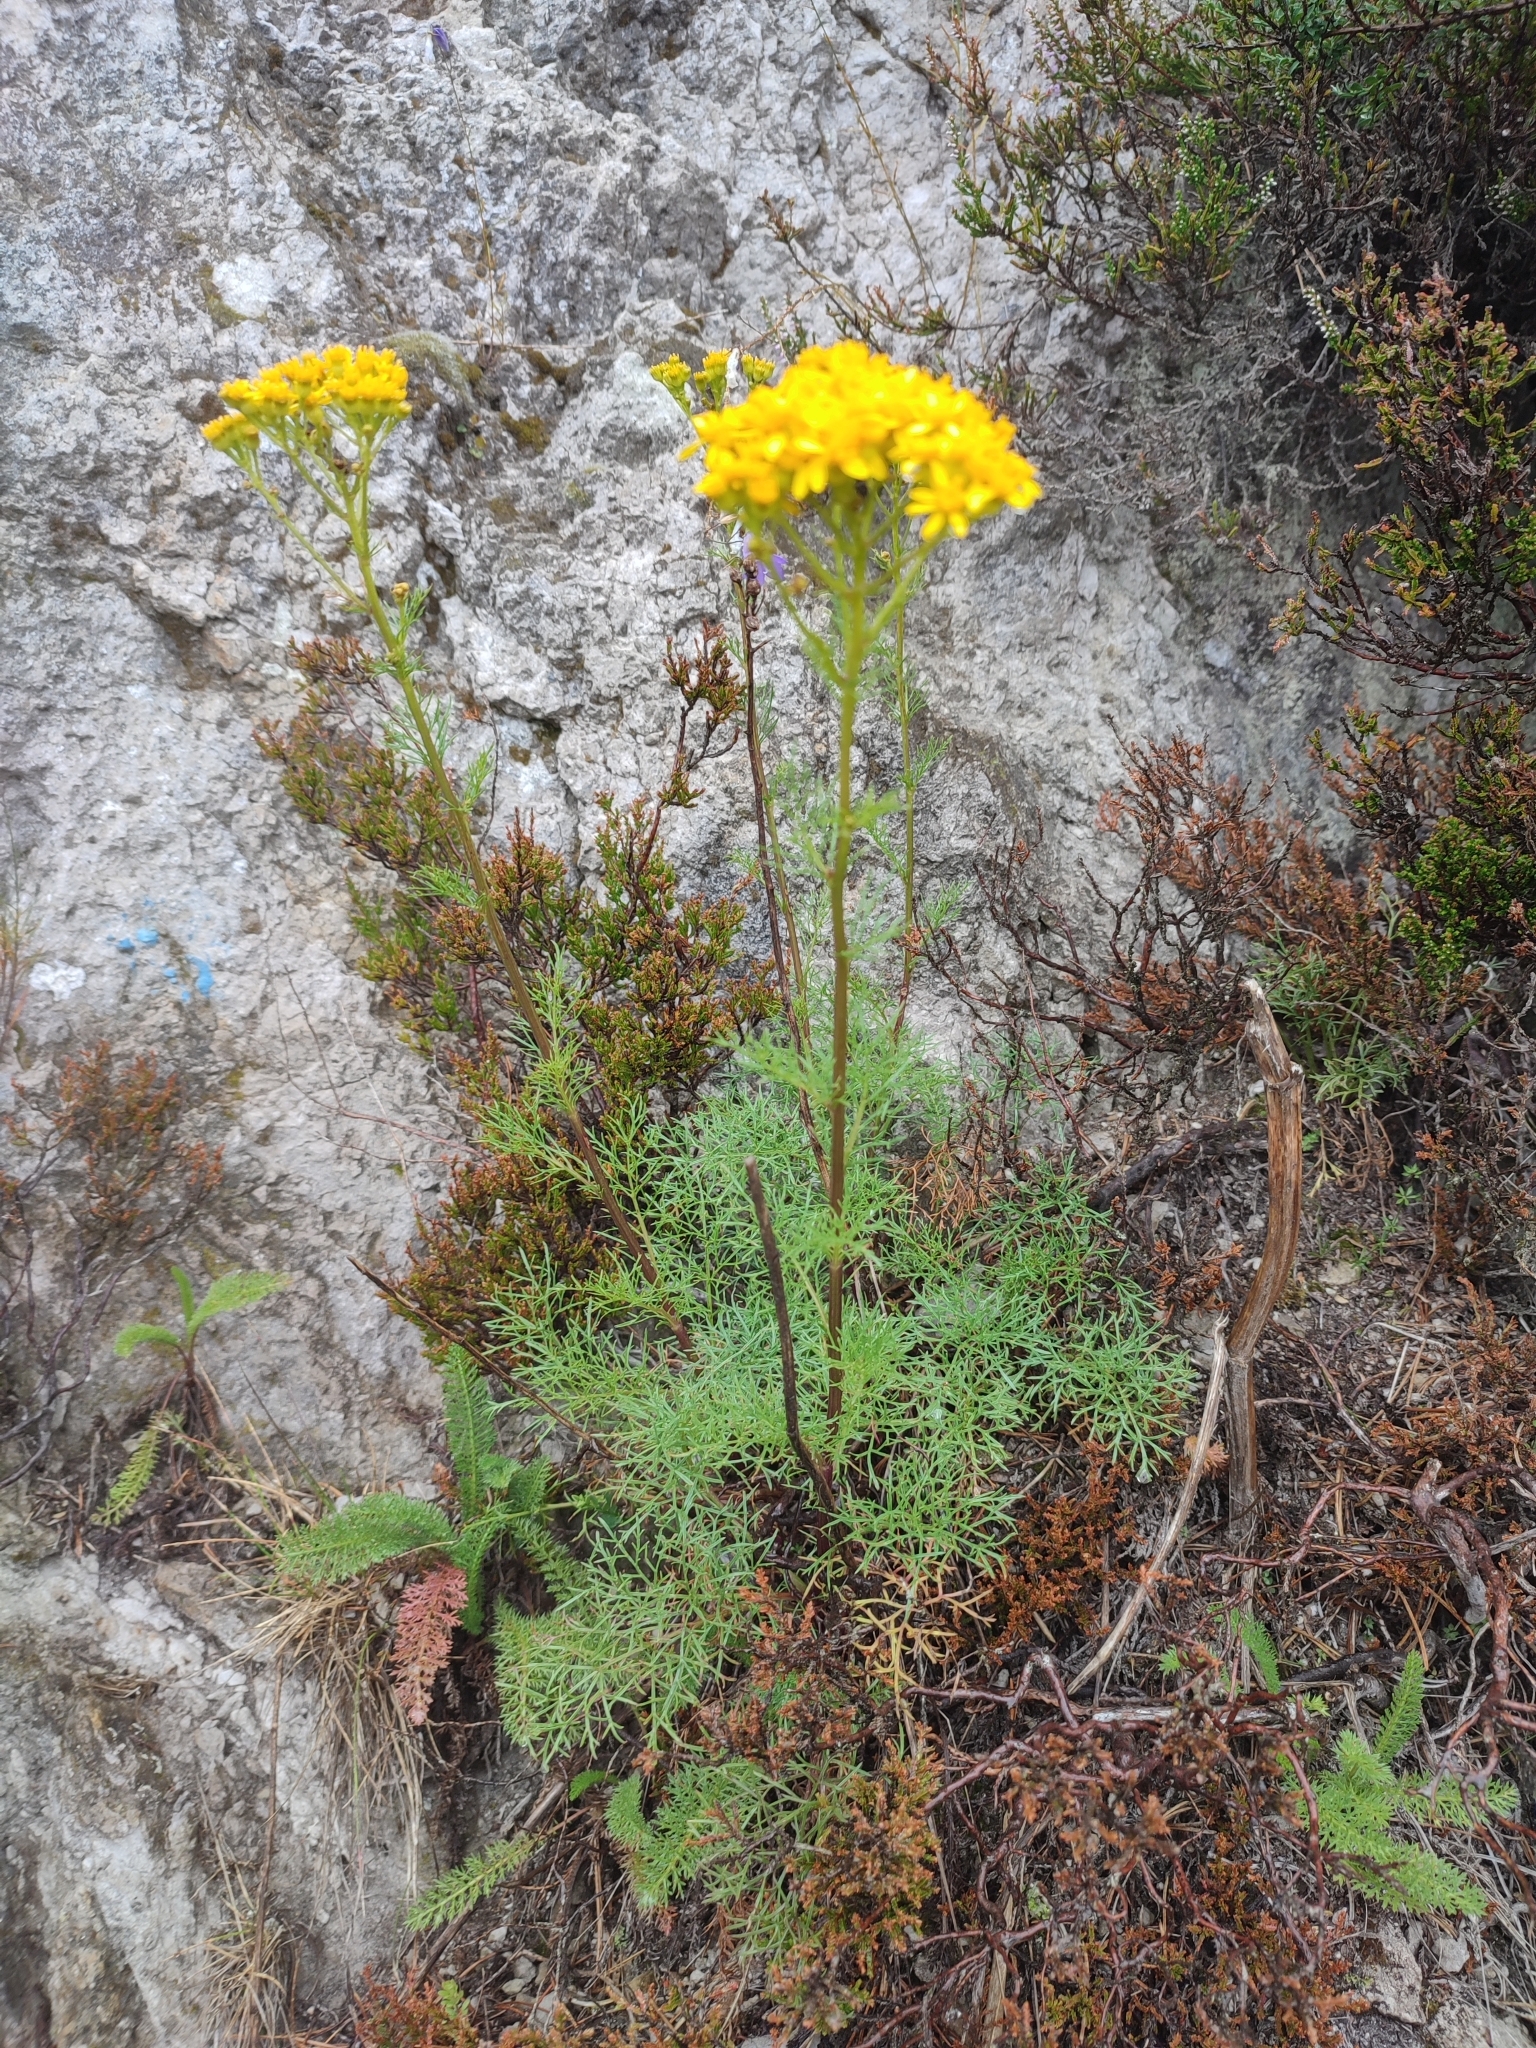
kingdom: Plantae
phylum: Tracheophyta
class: Magnoliopsida
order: Asterales
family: Asteraceae
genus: Jacobaea
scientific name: Jacobaea adonidifolia
